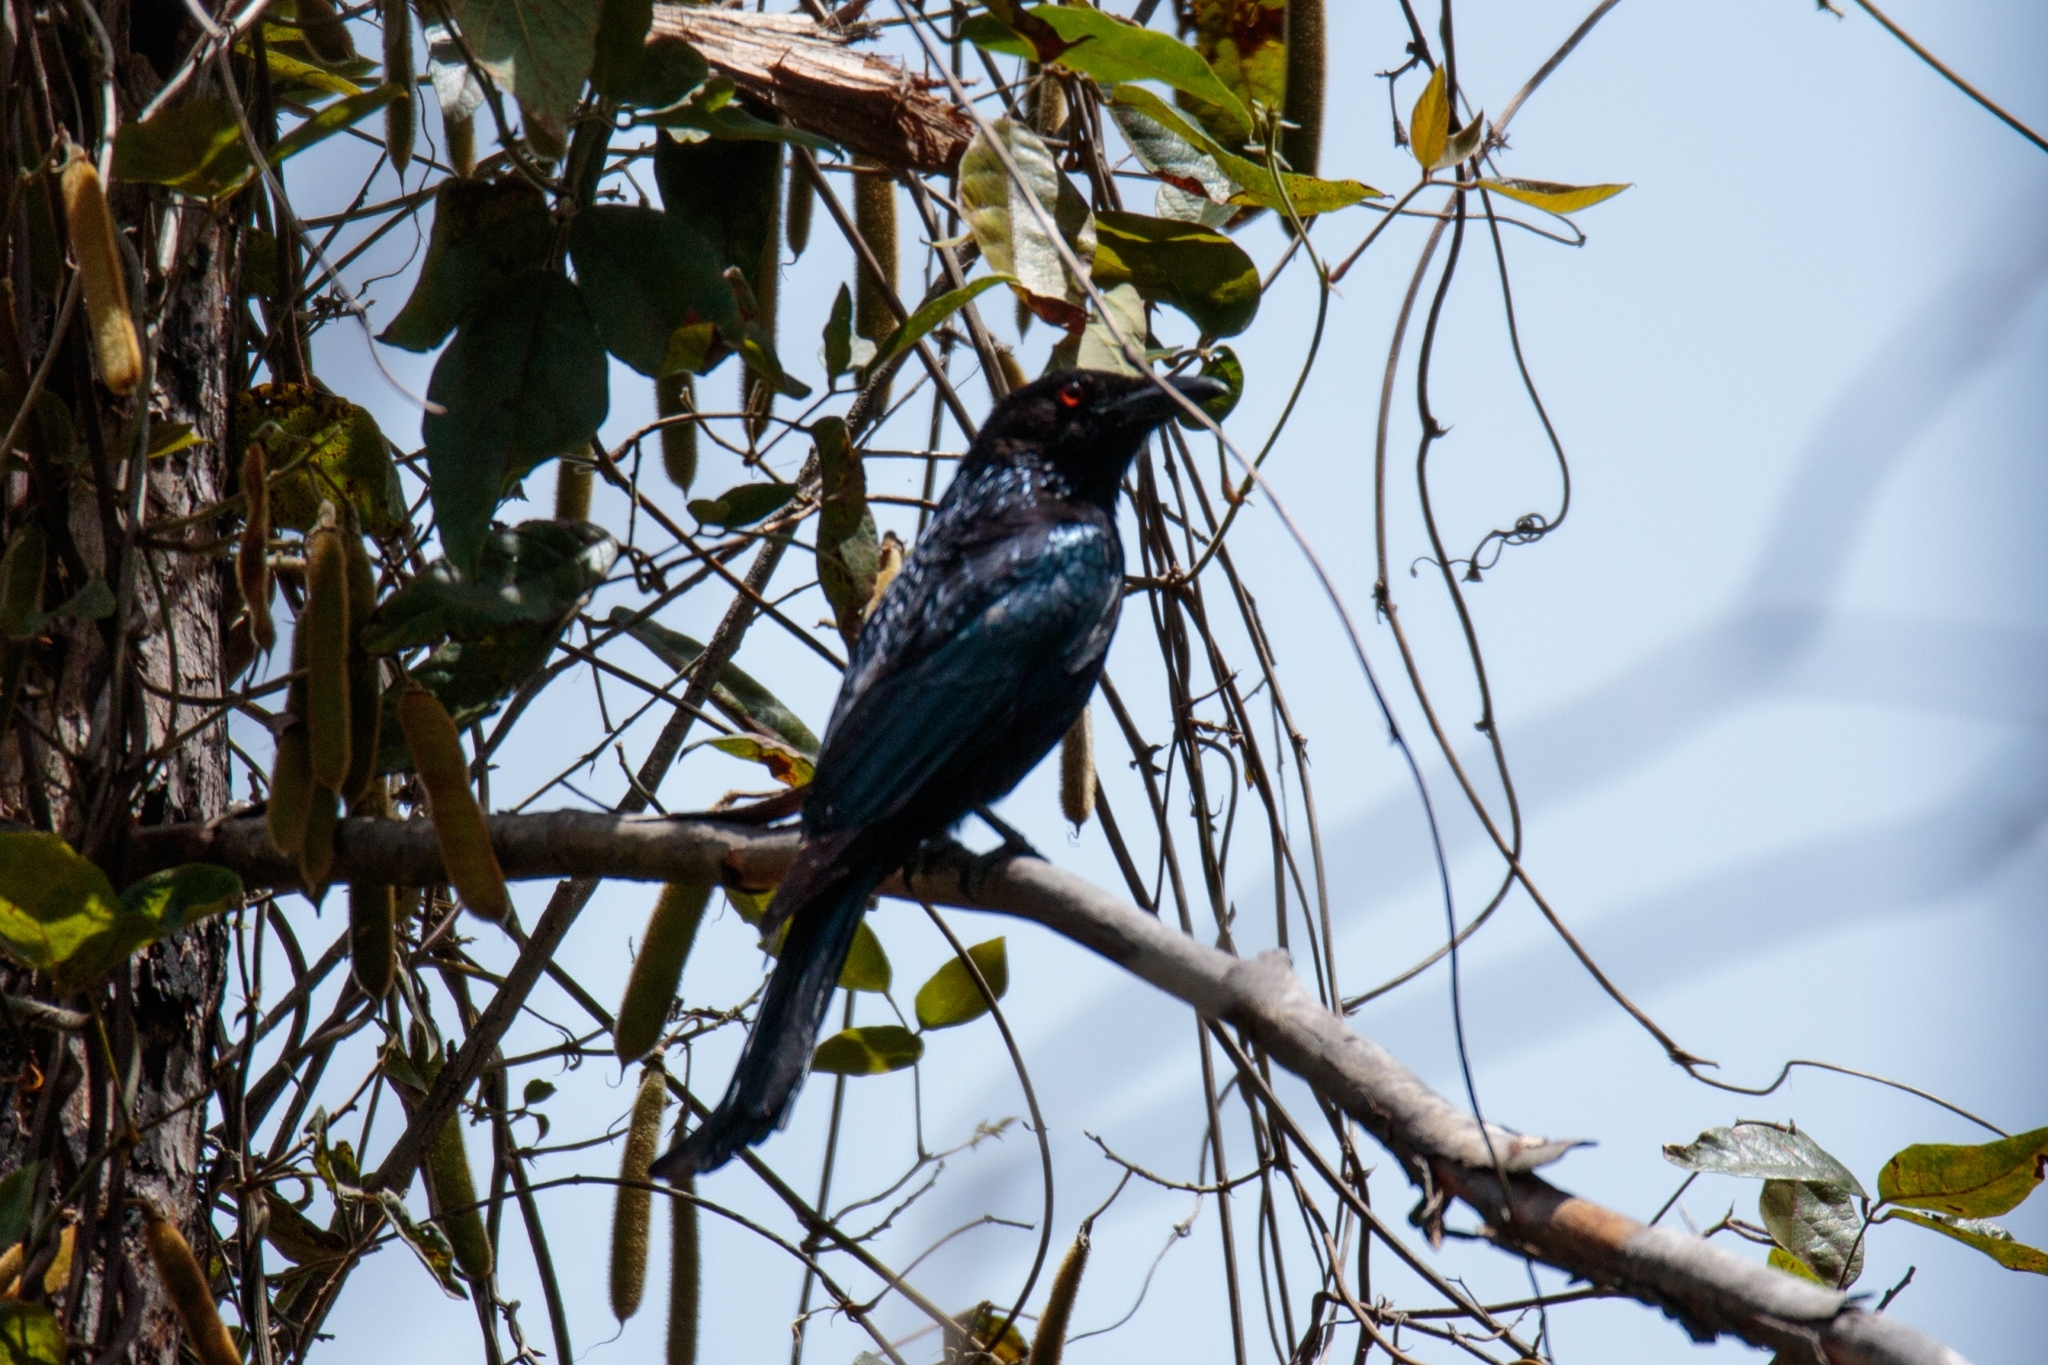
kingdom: Animalia
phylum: Chordata
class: Aves
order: Passeriformes
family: Dicruridae
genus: Dicrurus
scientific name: Dicrurus bracteatus
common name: Spangled drongo
